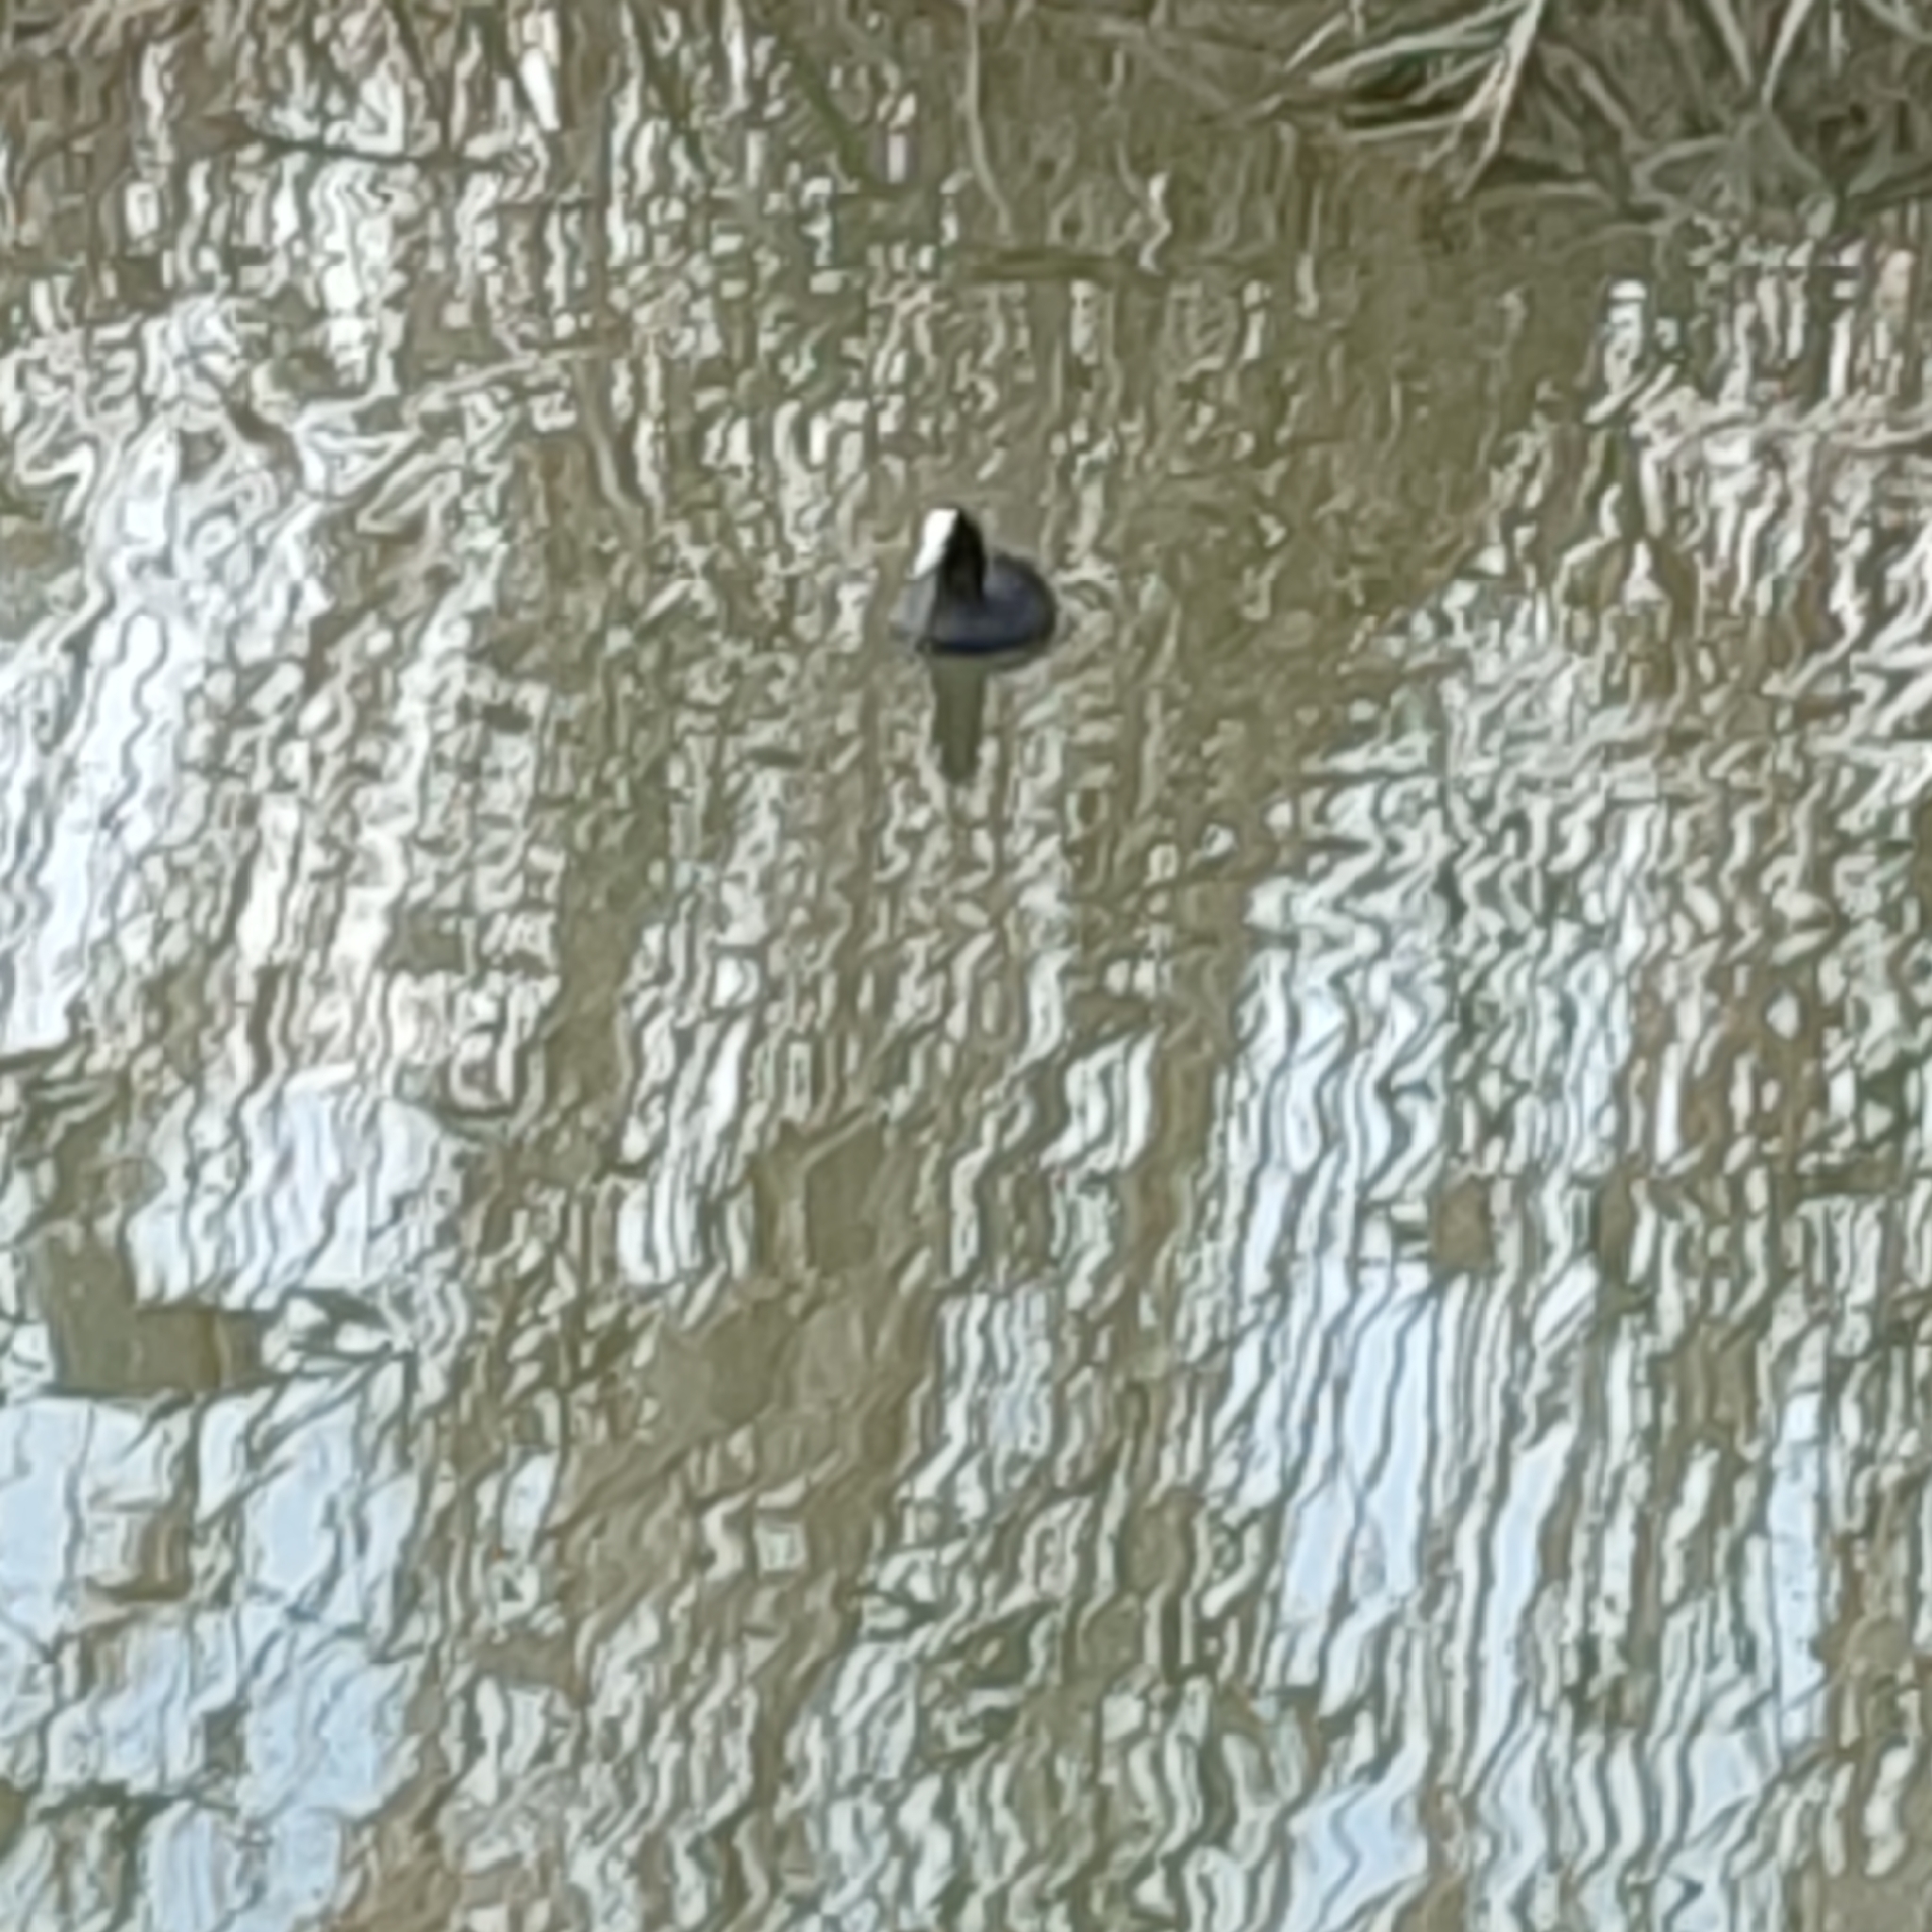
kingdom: Animalia
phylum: Chordata
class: Aves
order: Gruiformes
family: Rallidae
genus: Fulica
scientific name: Fulica atra
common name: Eurasian coot
